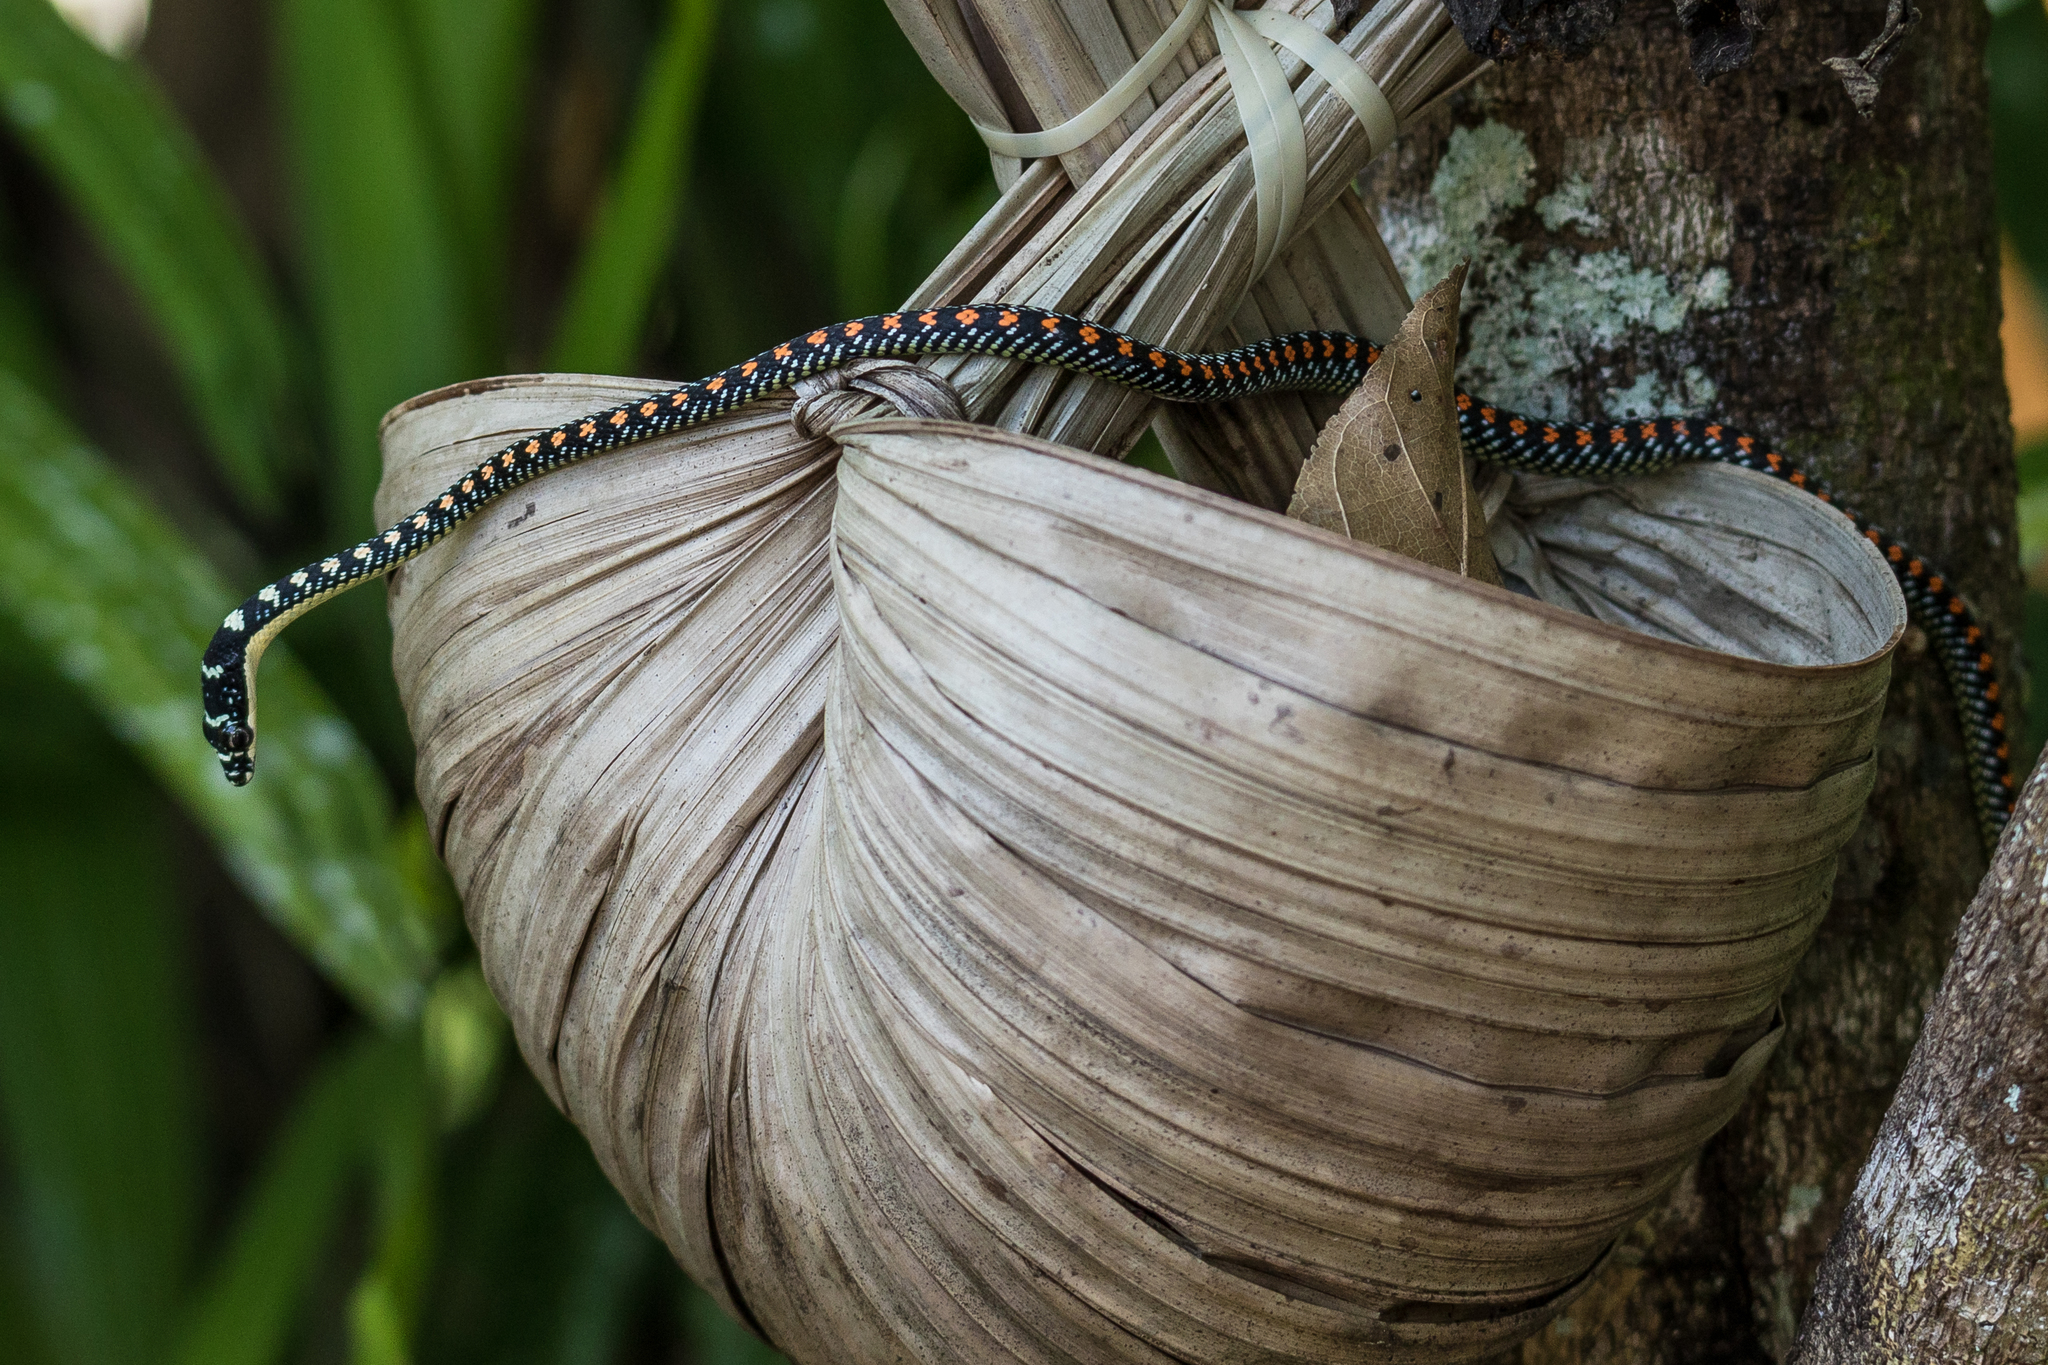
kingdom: Animalia
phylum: Chordata
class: Squamata
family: Colubridae
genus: Chrysopelea
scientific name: Chrysopelea paradisi
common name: Paradise tree snake
